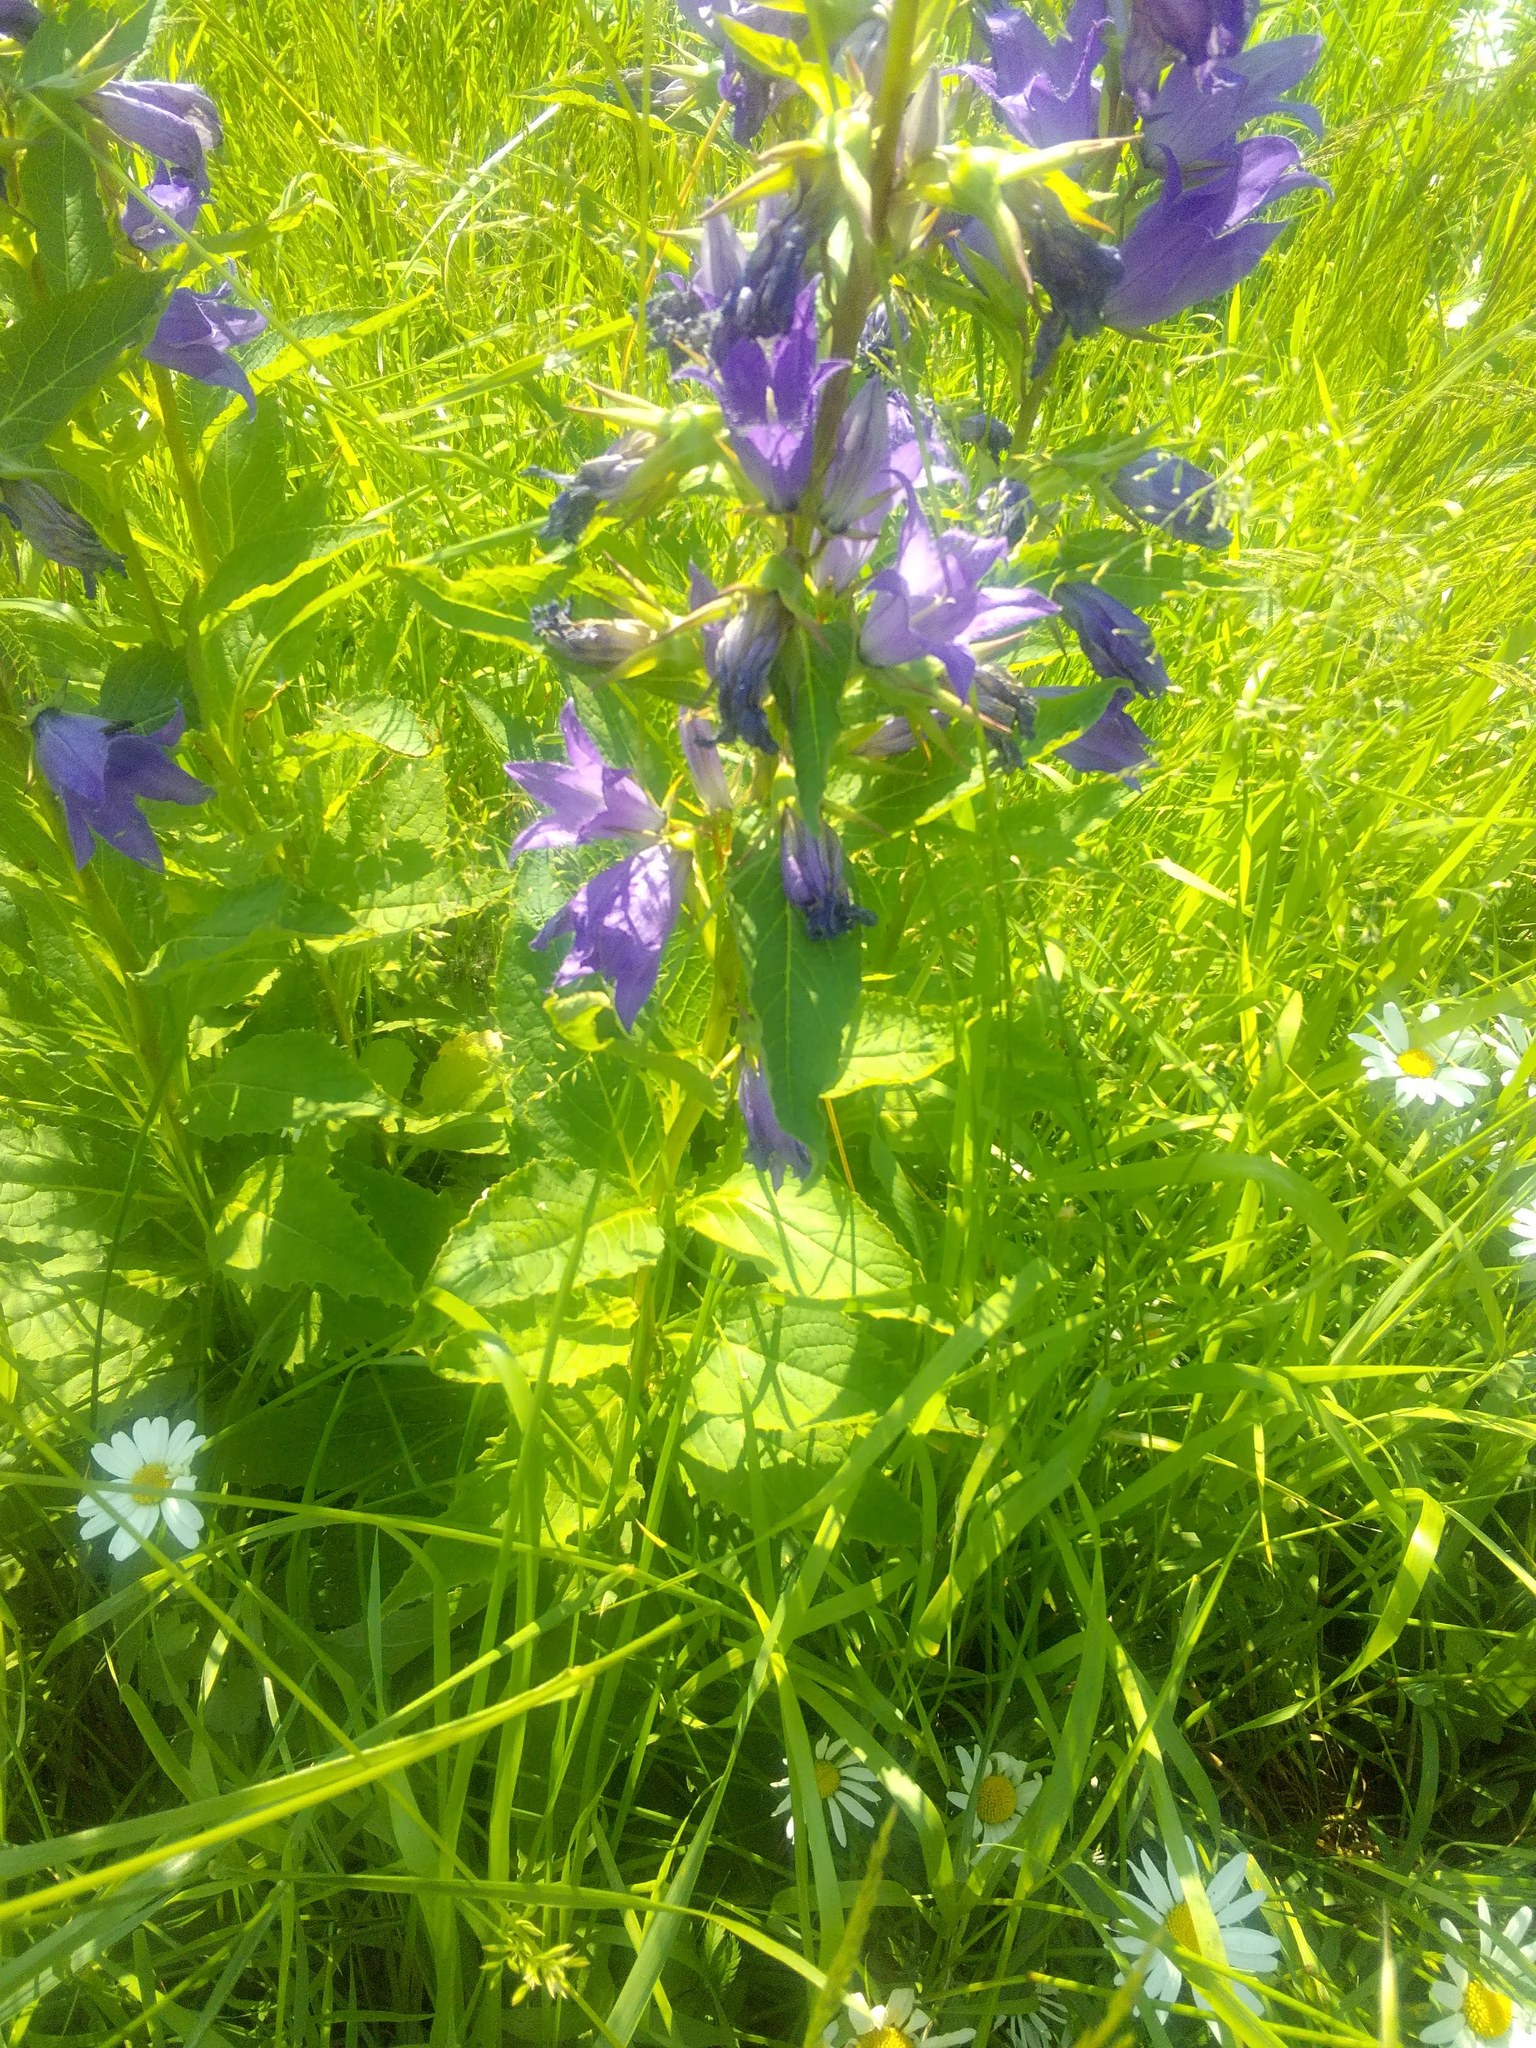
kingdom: Plantae
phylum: Tracheophyta
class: Magnoliopsida
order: Asterales
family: Campanulaceae
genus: Campanula
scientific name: Campanula latifolia
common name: Giant bellflower
